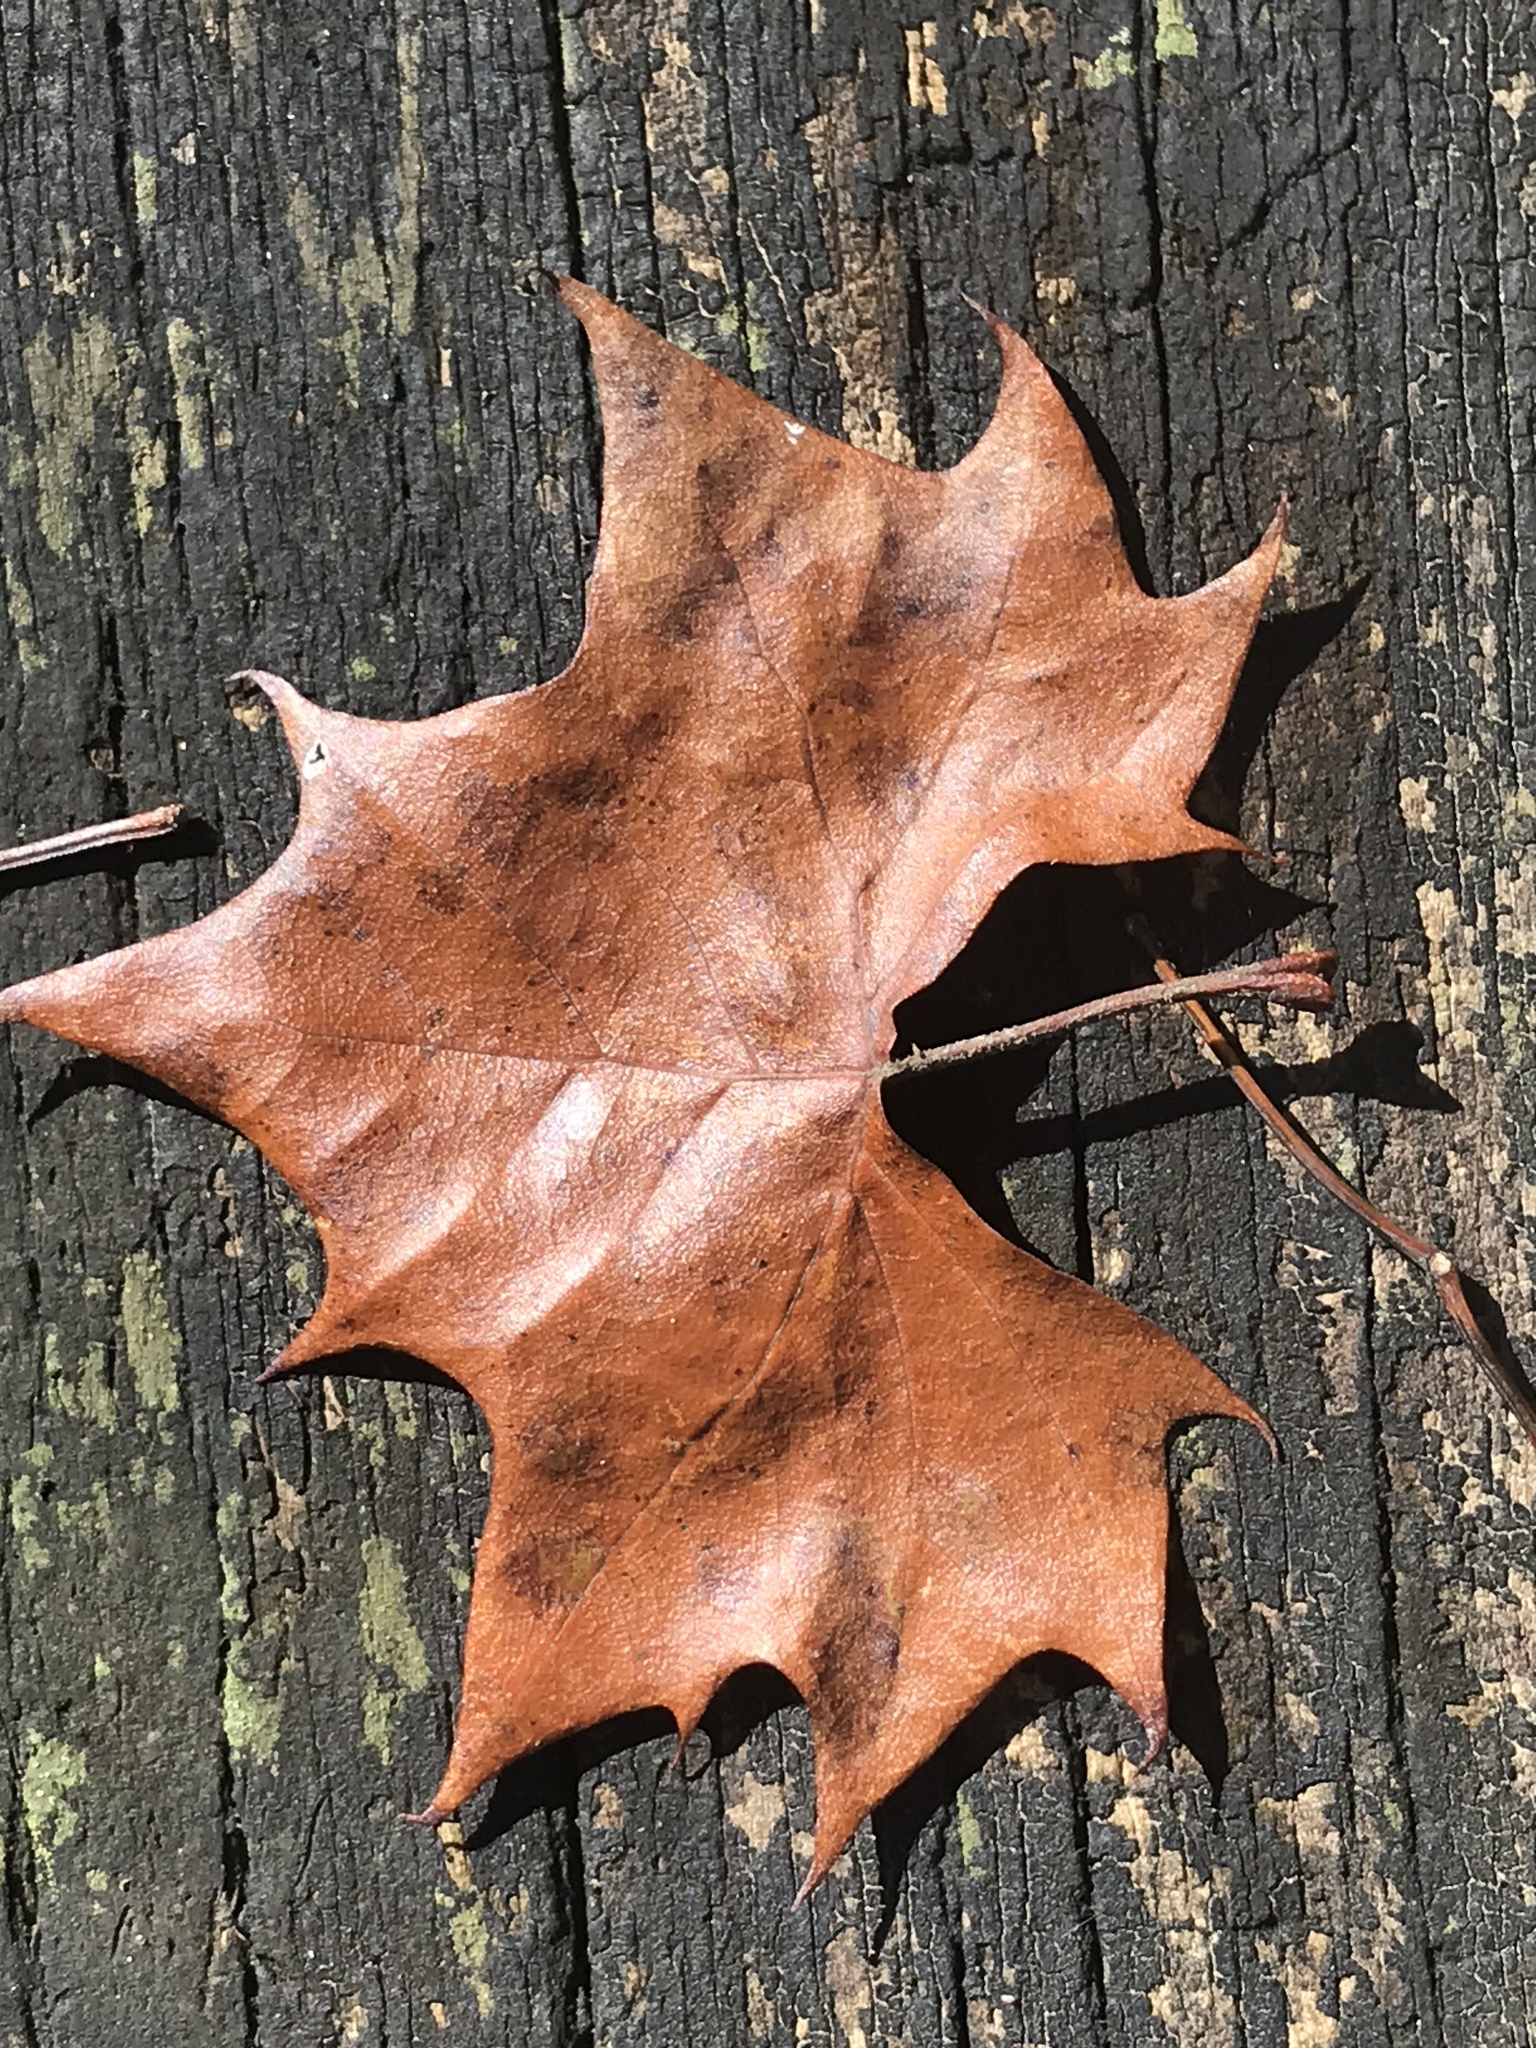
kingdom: Plantae
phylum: Tracheophyta
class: Magnoliopsida
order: Proteales
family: Platanaceae
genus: Platanus
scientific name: Platanus occidentalis
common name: American sycamore
